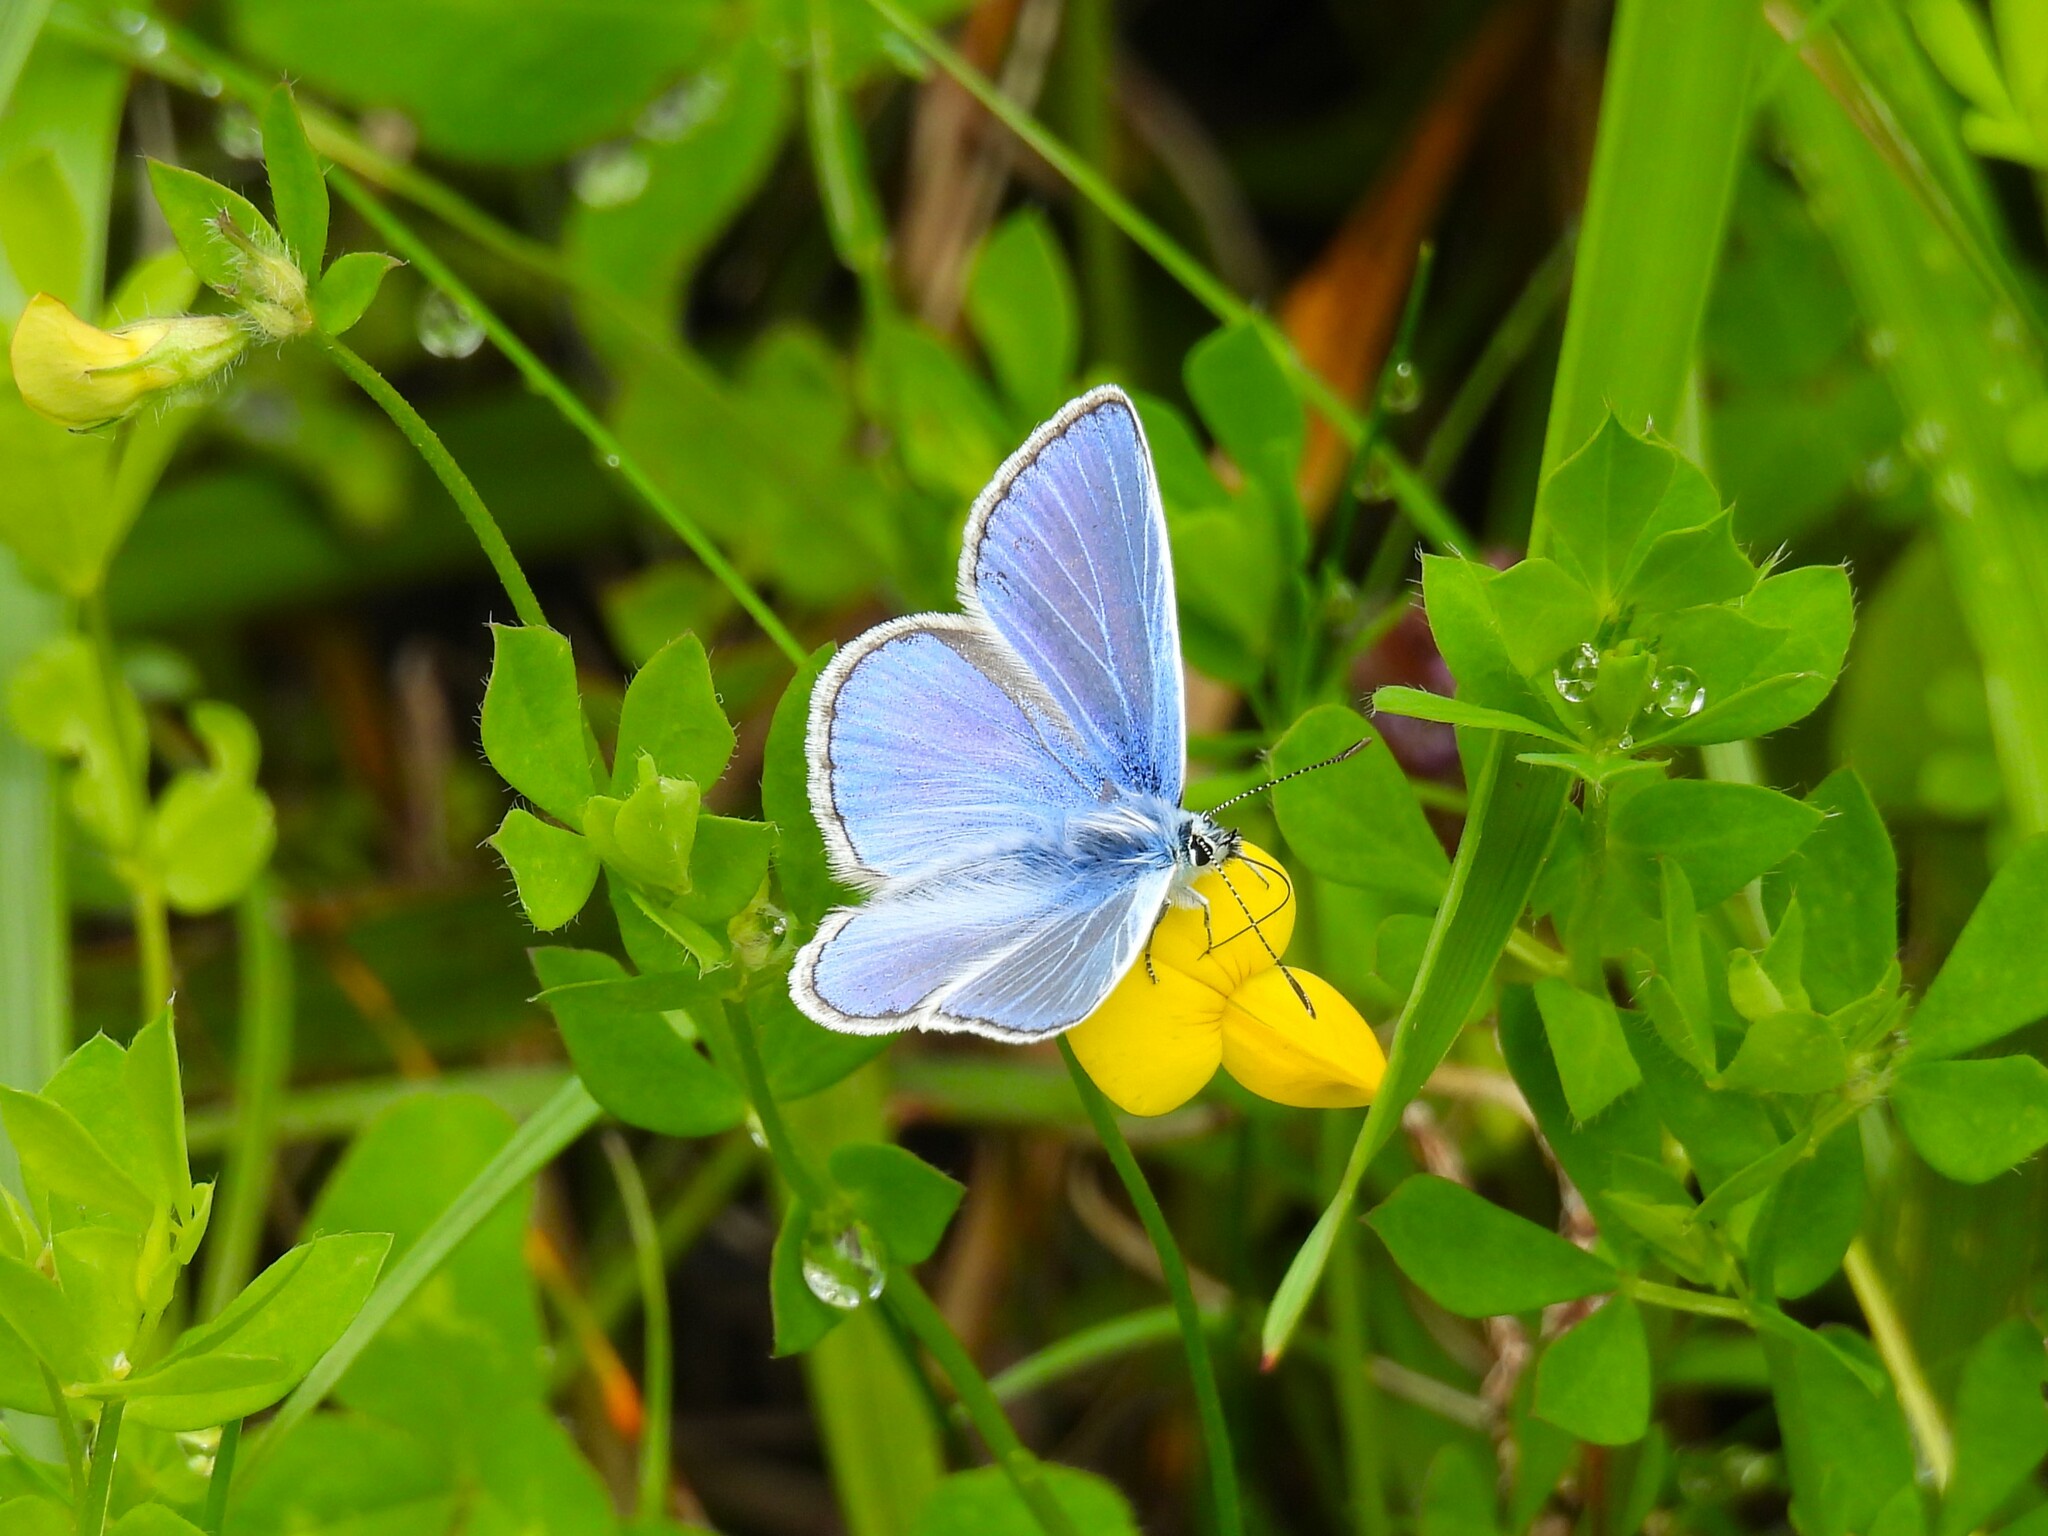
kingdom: Animalia
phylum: Arthropoda
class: Insecta
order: Lepidoptera
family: Lycaenidae
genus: Polyommatus
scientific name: Polyommatus icarus
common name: Common blue
